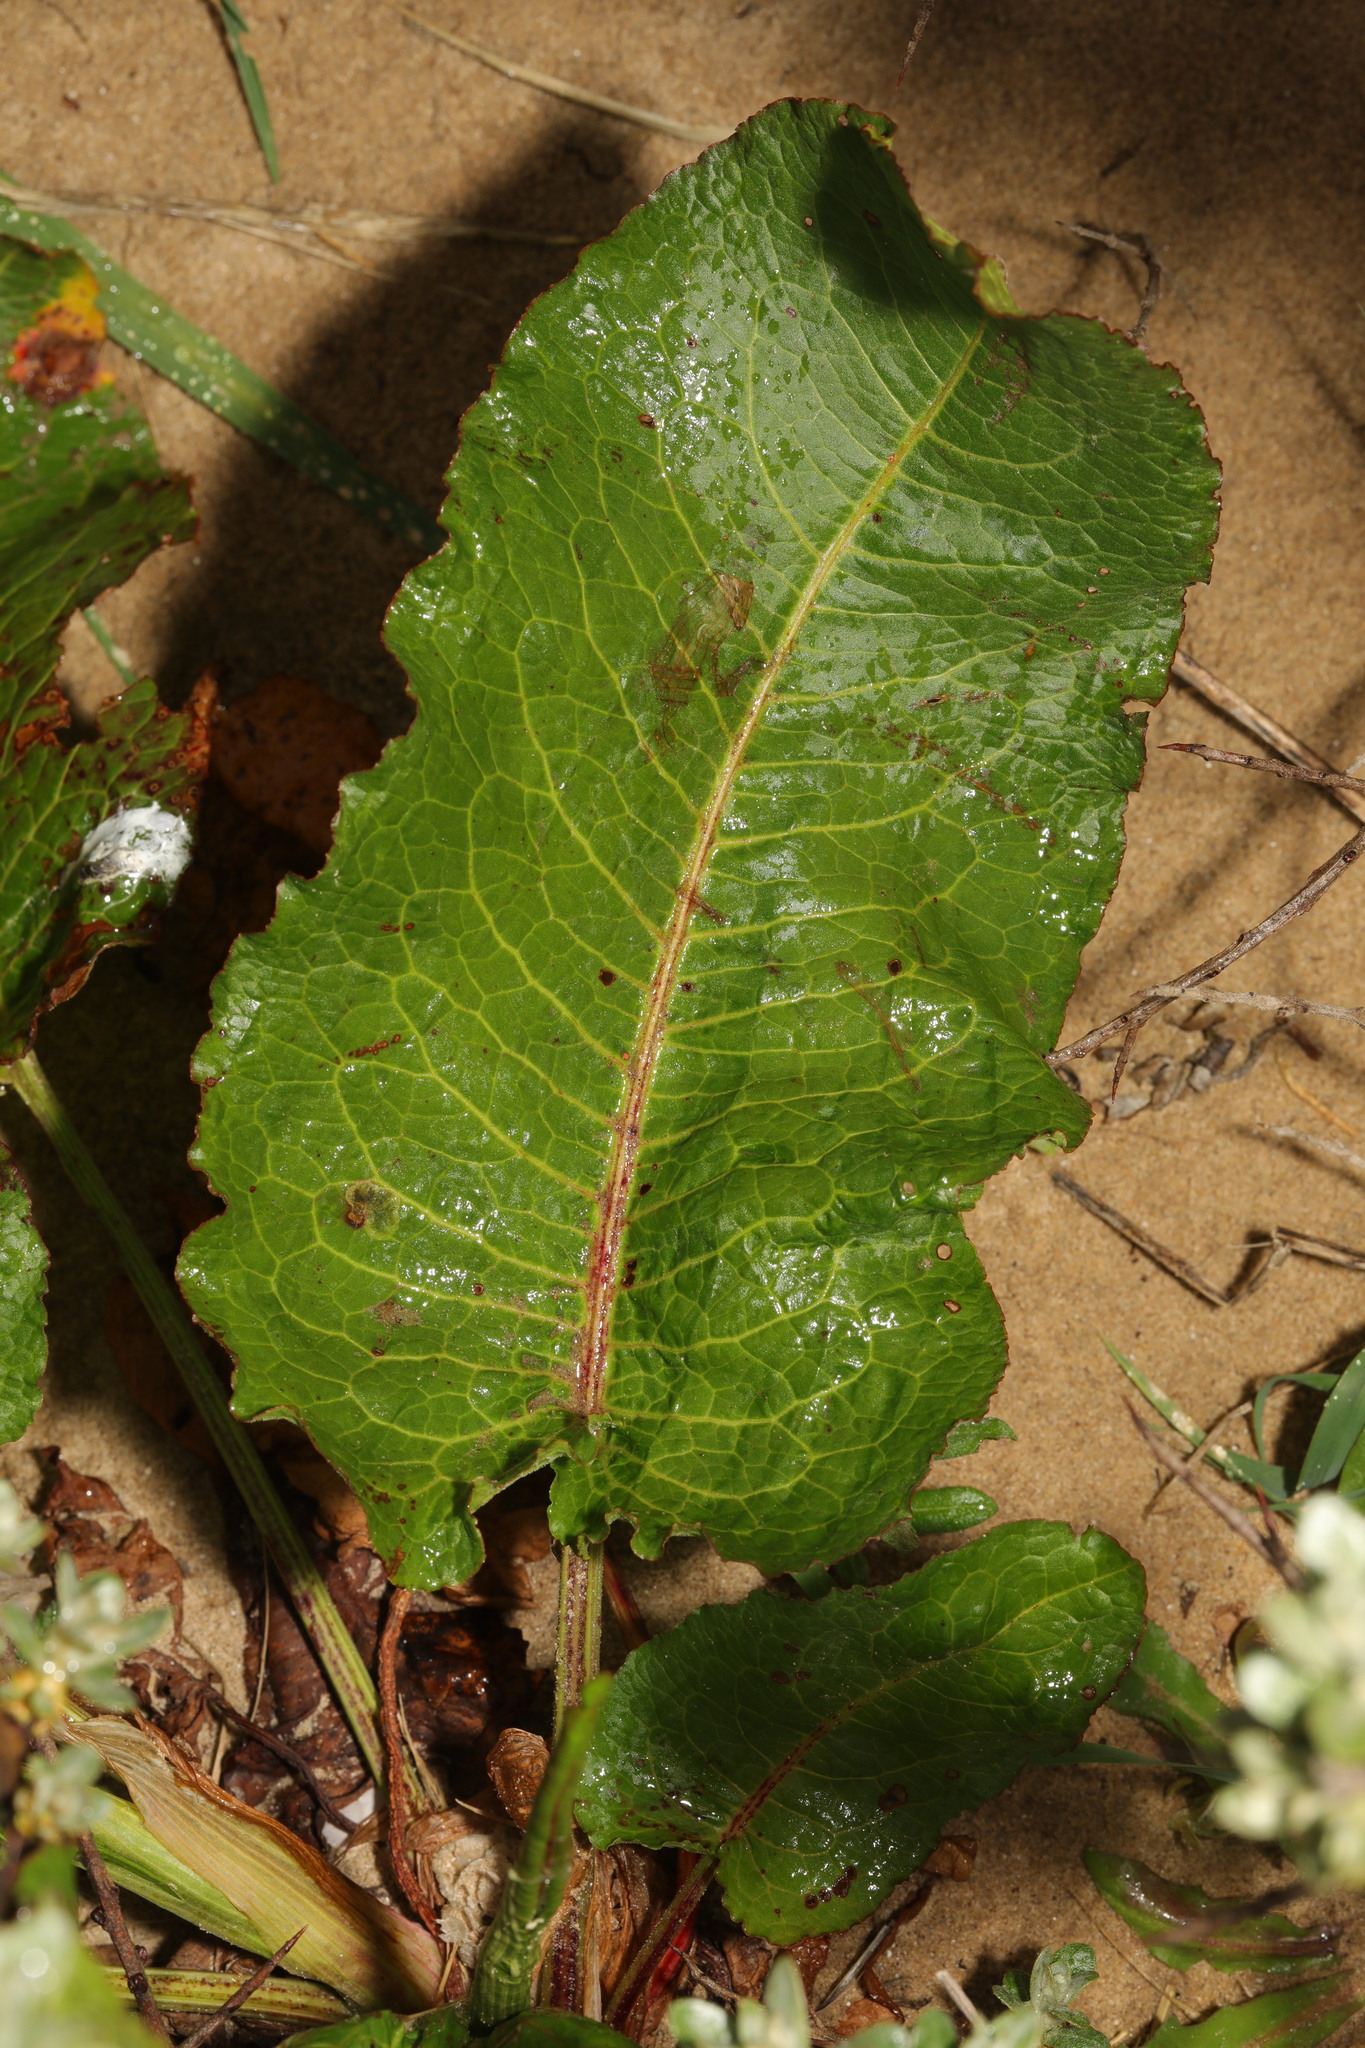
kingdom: Plantae
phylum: Tracheophyta
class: Magnoliopsida
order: Caryophyllales
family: Polygonaceae
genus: Rumex
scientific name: Rumex obtusifolius
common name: Bitter dock
